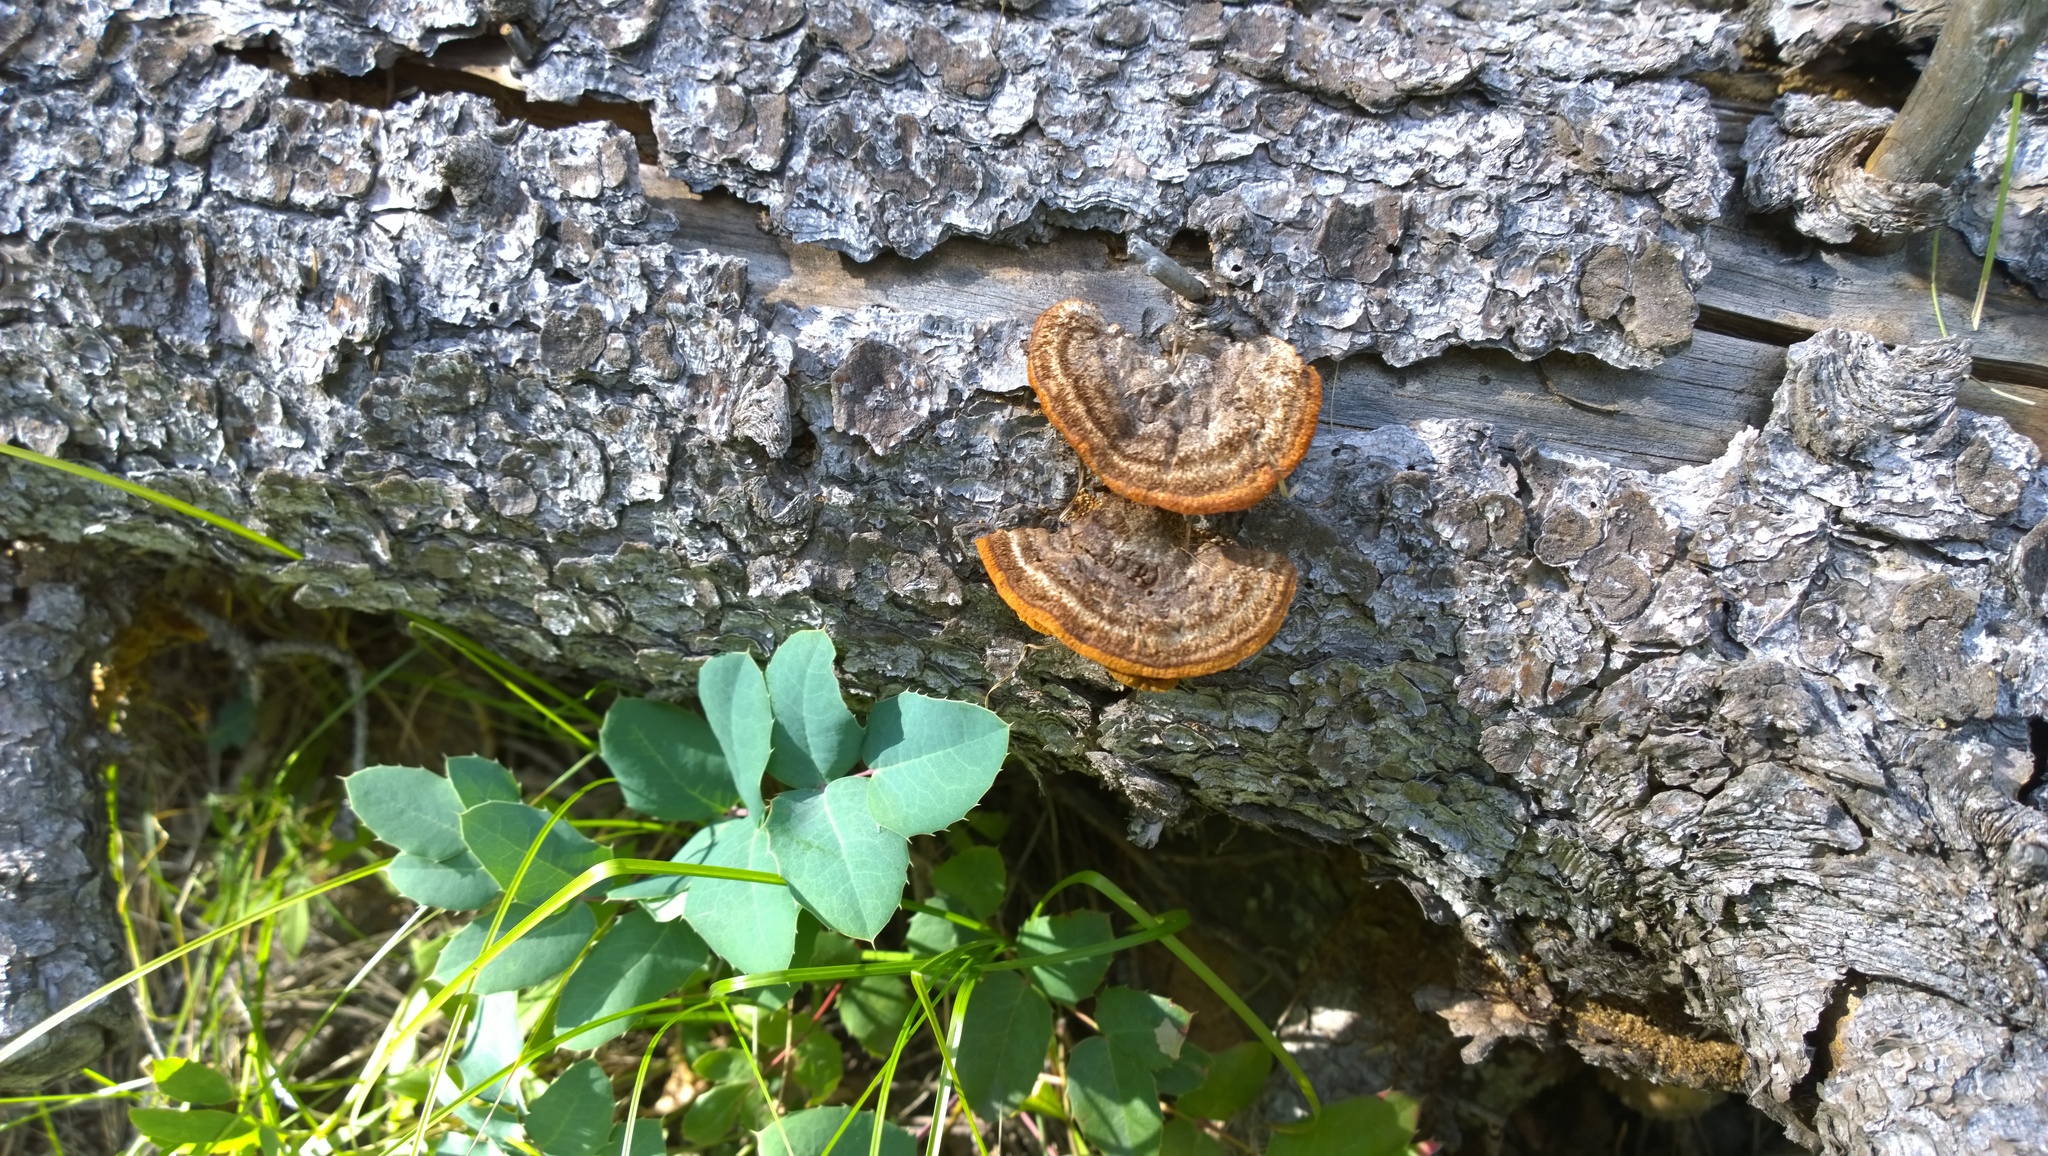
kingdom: Fungi
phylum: Basidiomycota
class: Agaricomycetes
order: Gloeophyllales
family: Gloeophyllaceae
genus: Gloeophyllum
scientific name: Gloeophyllum sepiarium
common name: Conifer mazegill
